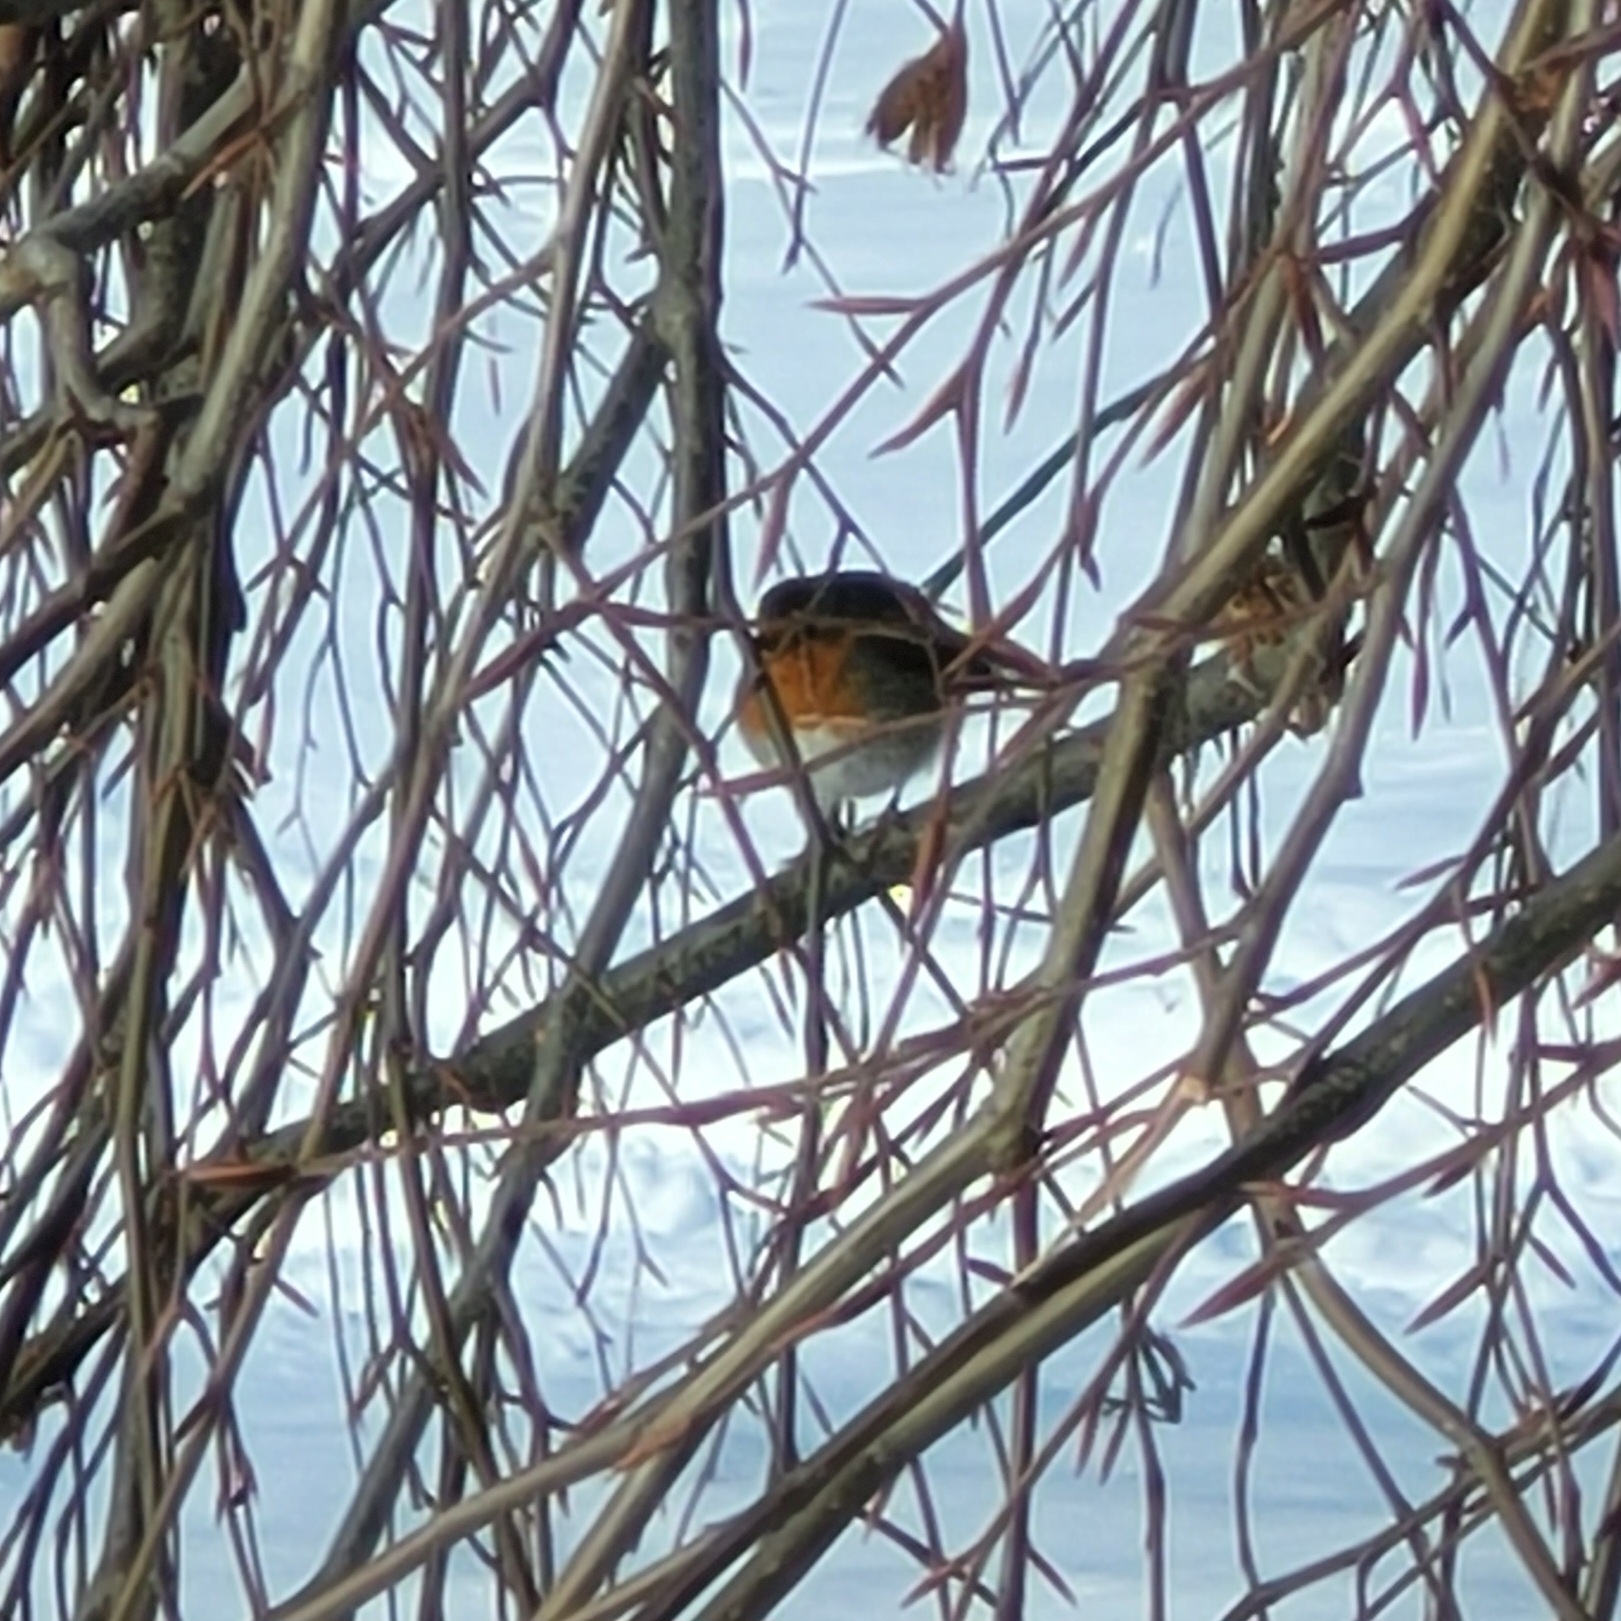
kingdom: Animalia
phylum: Chordata
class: Aves
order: Passeriformes
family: Muscicapidae
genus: Erithacus
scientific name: Erithacus rubecula
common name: European robin
